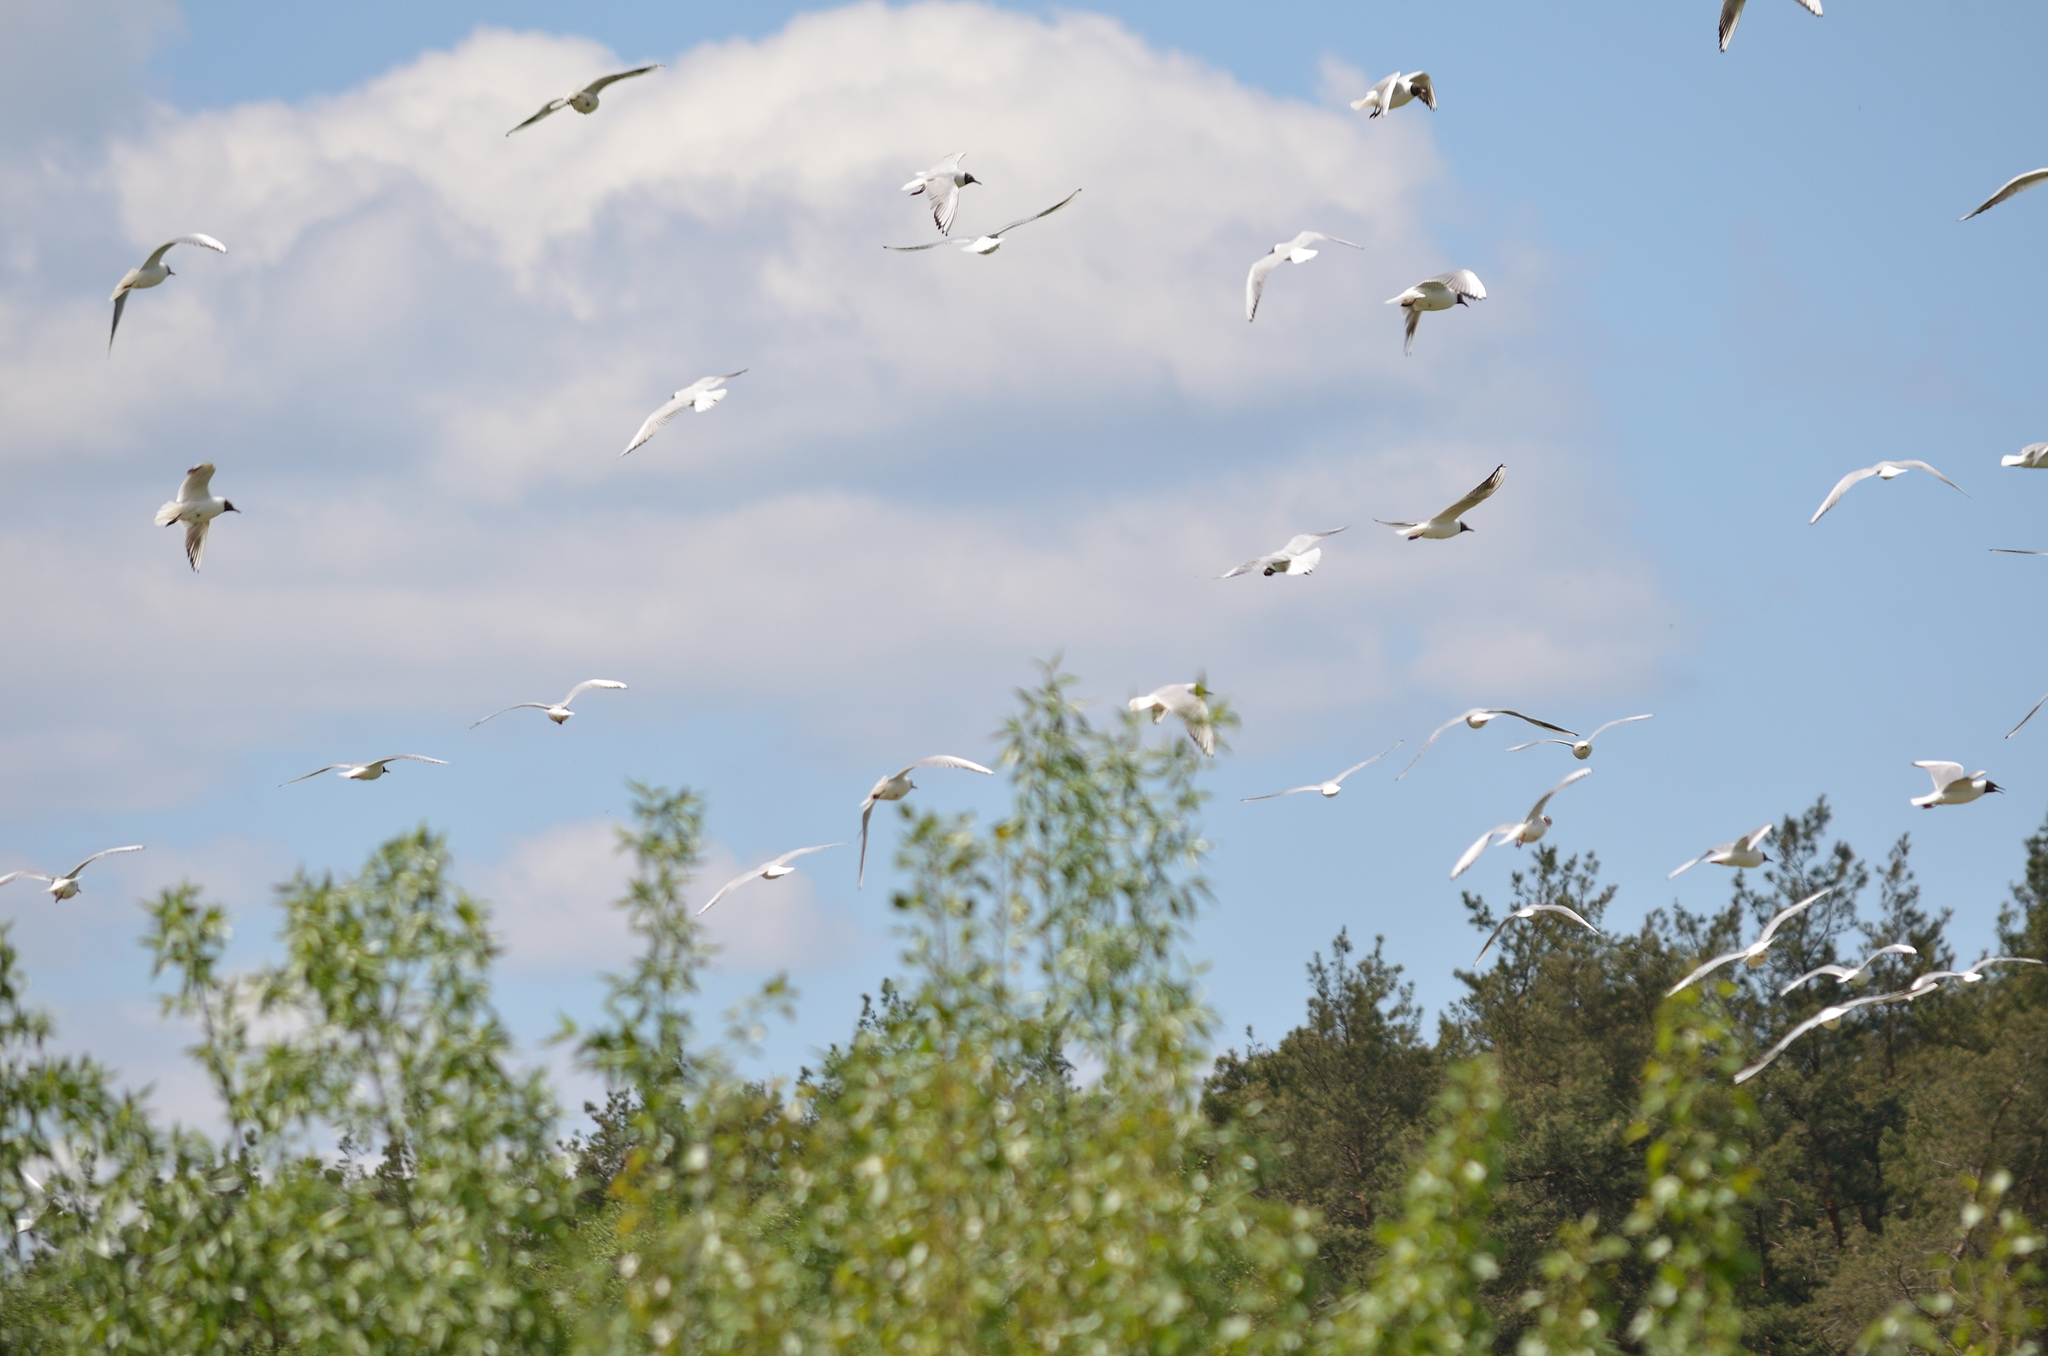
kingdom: Animalia
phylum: Chordata
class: Aves
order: Charadriiformes
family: Laridae
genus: Chroicocephalus
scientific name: Chroicocephalus ridibundus
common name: Black-headed gull
